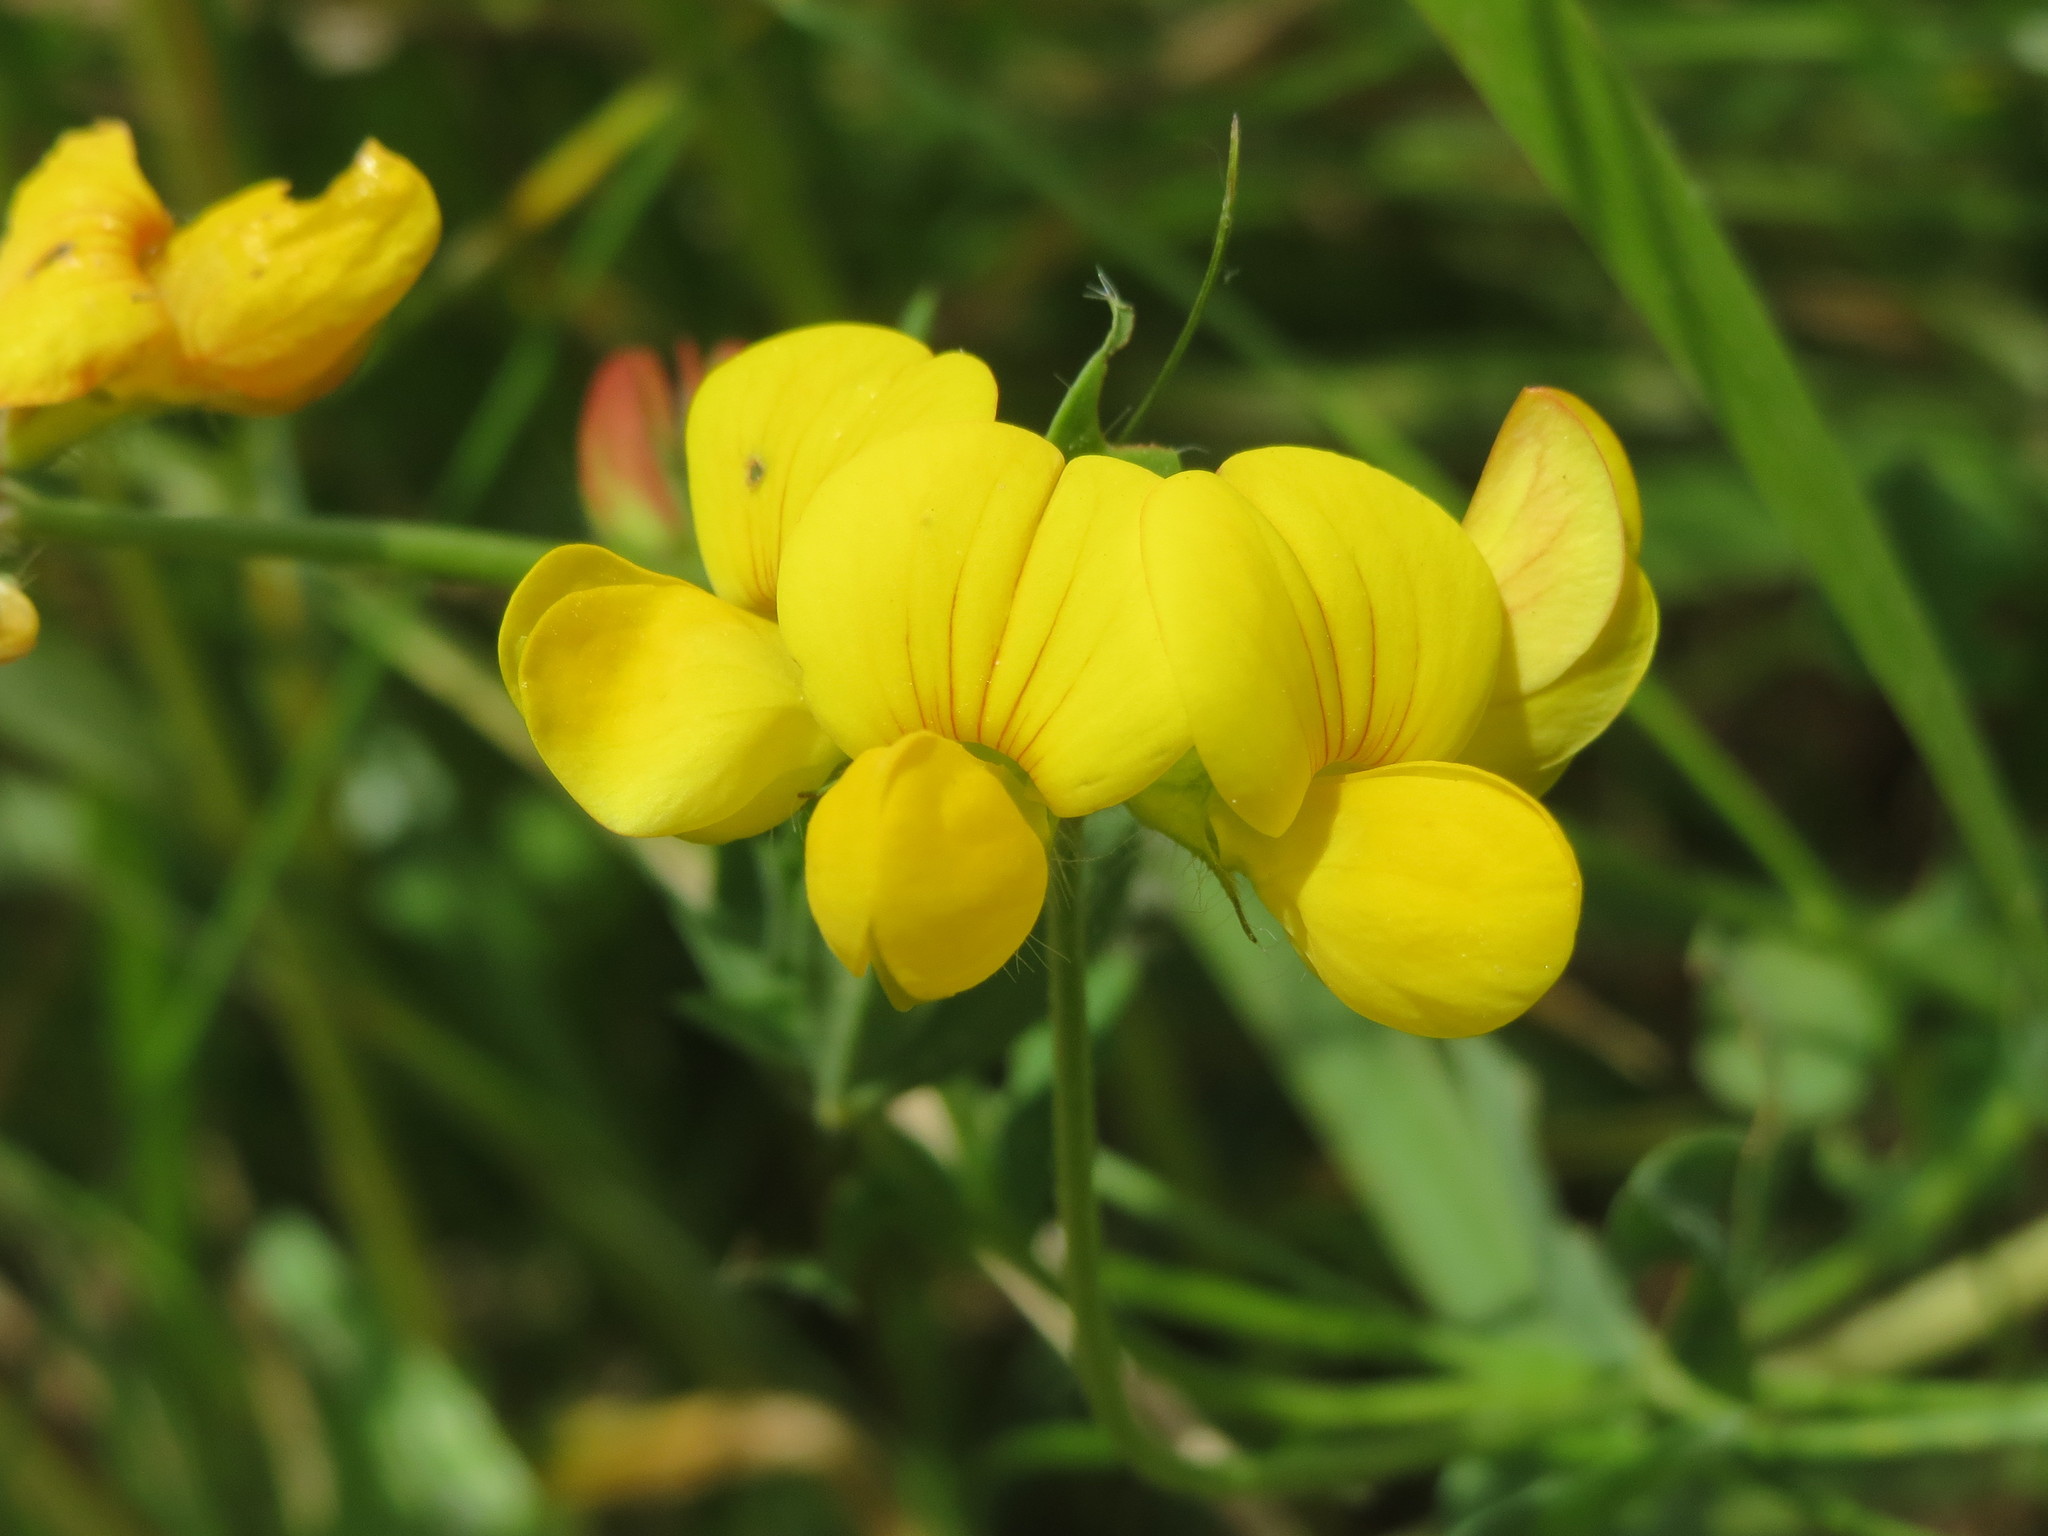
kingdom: Plantae
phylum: Tracheophyta
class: Magnoliopsida
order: Fabales
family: Fabaceae
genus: Lotus
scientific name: Lotus corniculatus
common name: Common bird's-foot-trefoil
